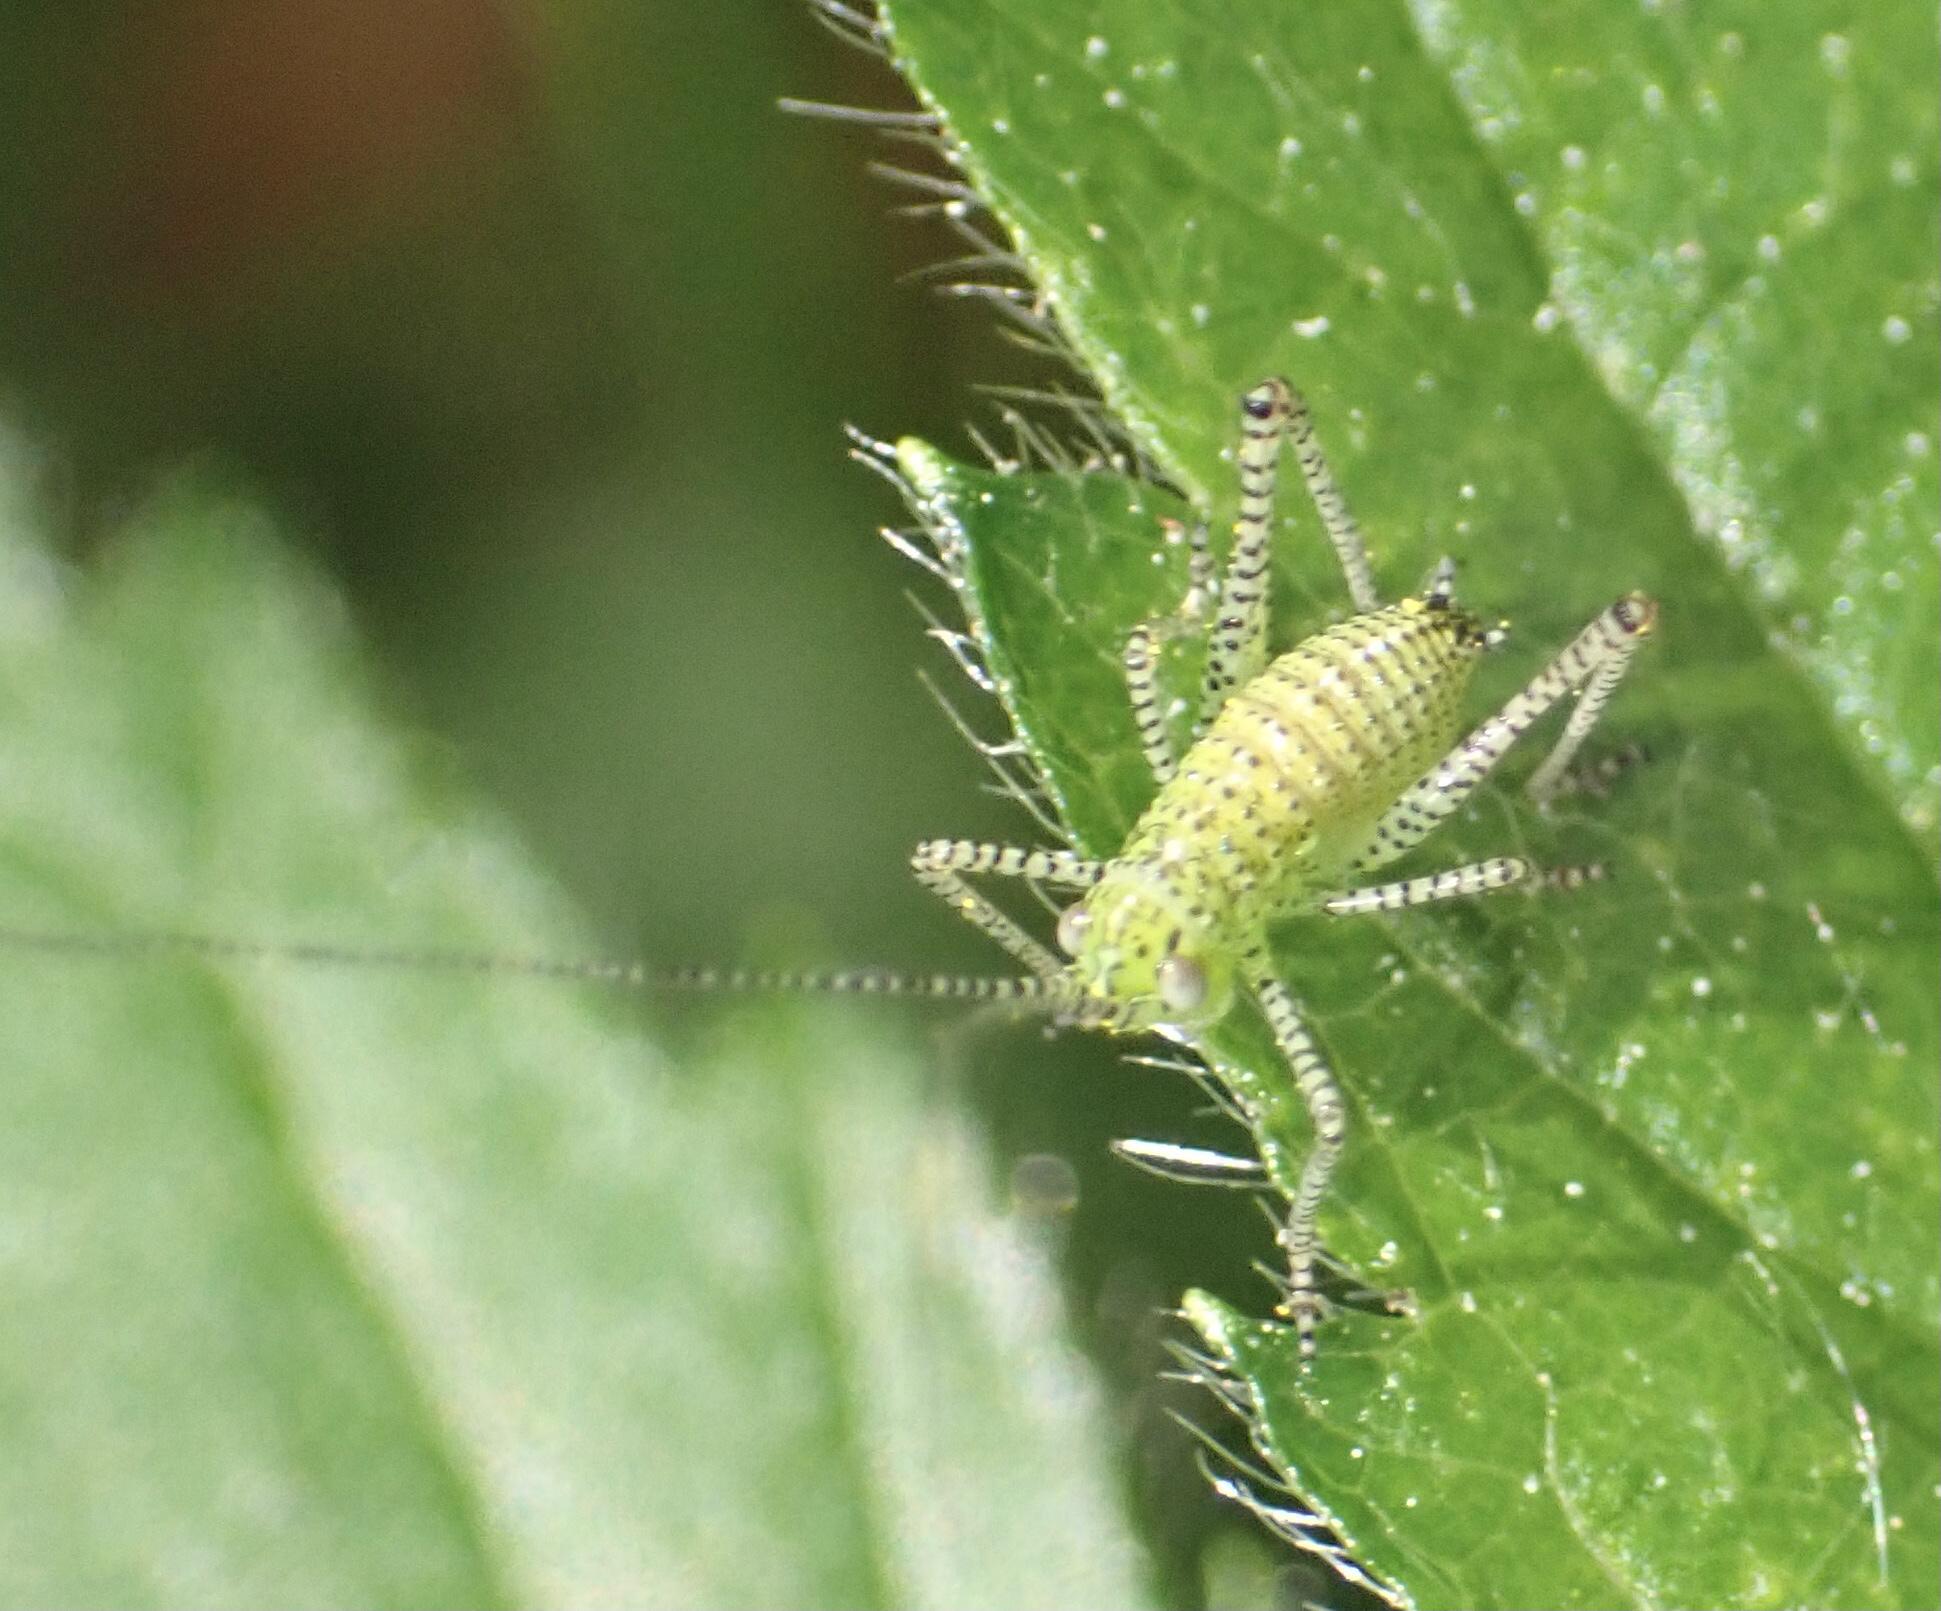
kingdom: Animalia
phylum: Arthropoda
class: Insecta
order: Orthoptera
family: Tettigoniidae
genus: Leptophyes
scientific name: Leptophyes punctatissima
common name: Speckled bush-cricket
